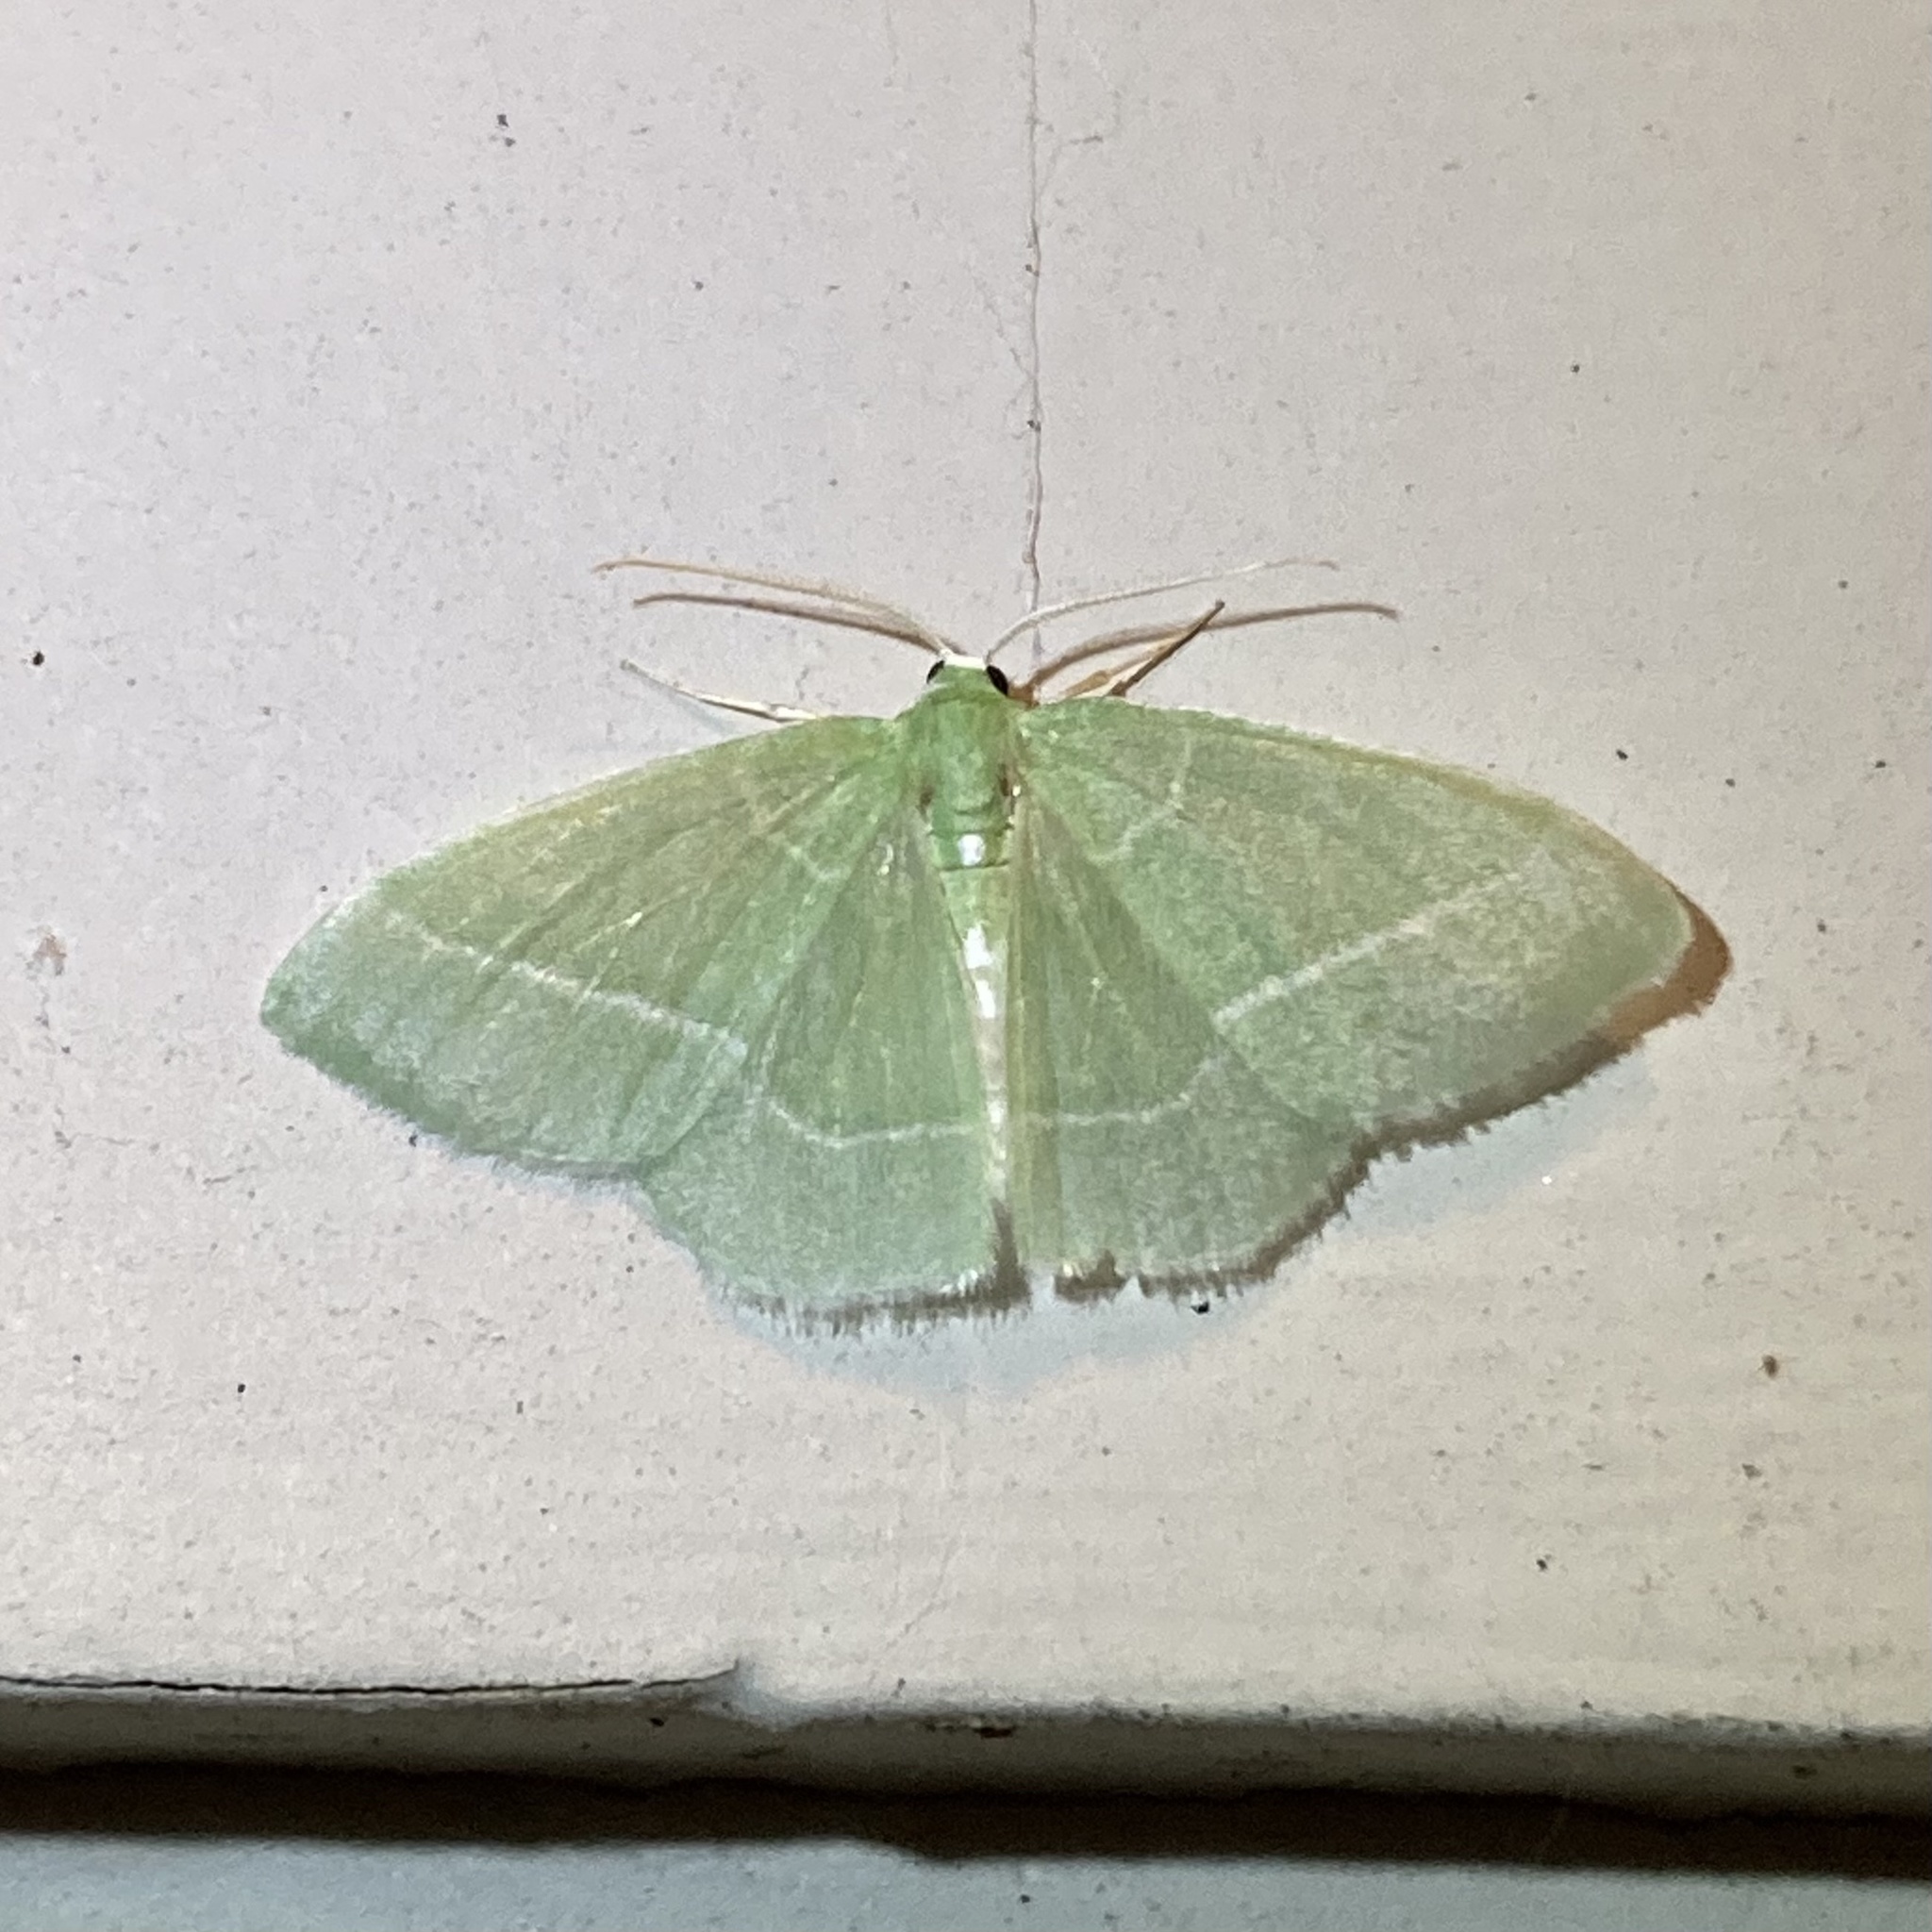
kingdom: Animalia
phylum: Arthropoda
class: Insecta
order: Lepidoptera
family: Geometridae
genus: Nemoria
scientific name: Nemoria mimosaria
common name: White-fringed emerald
